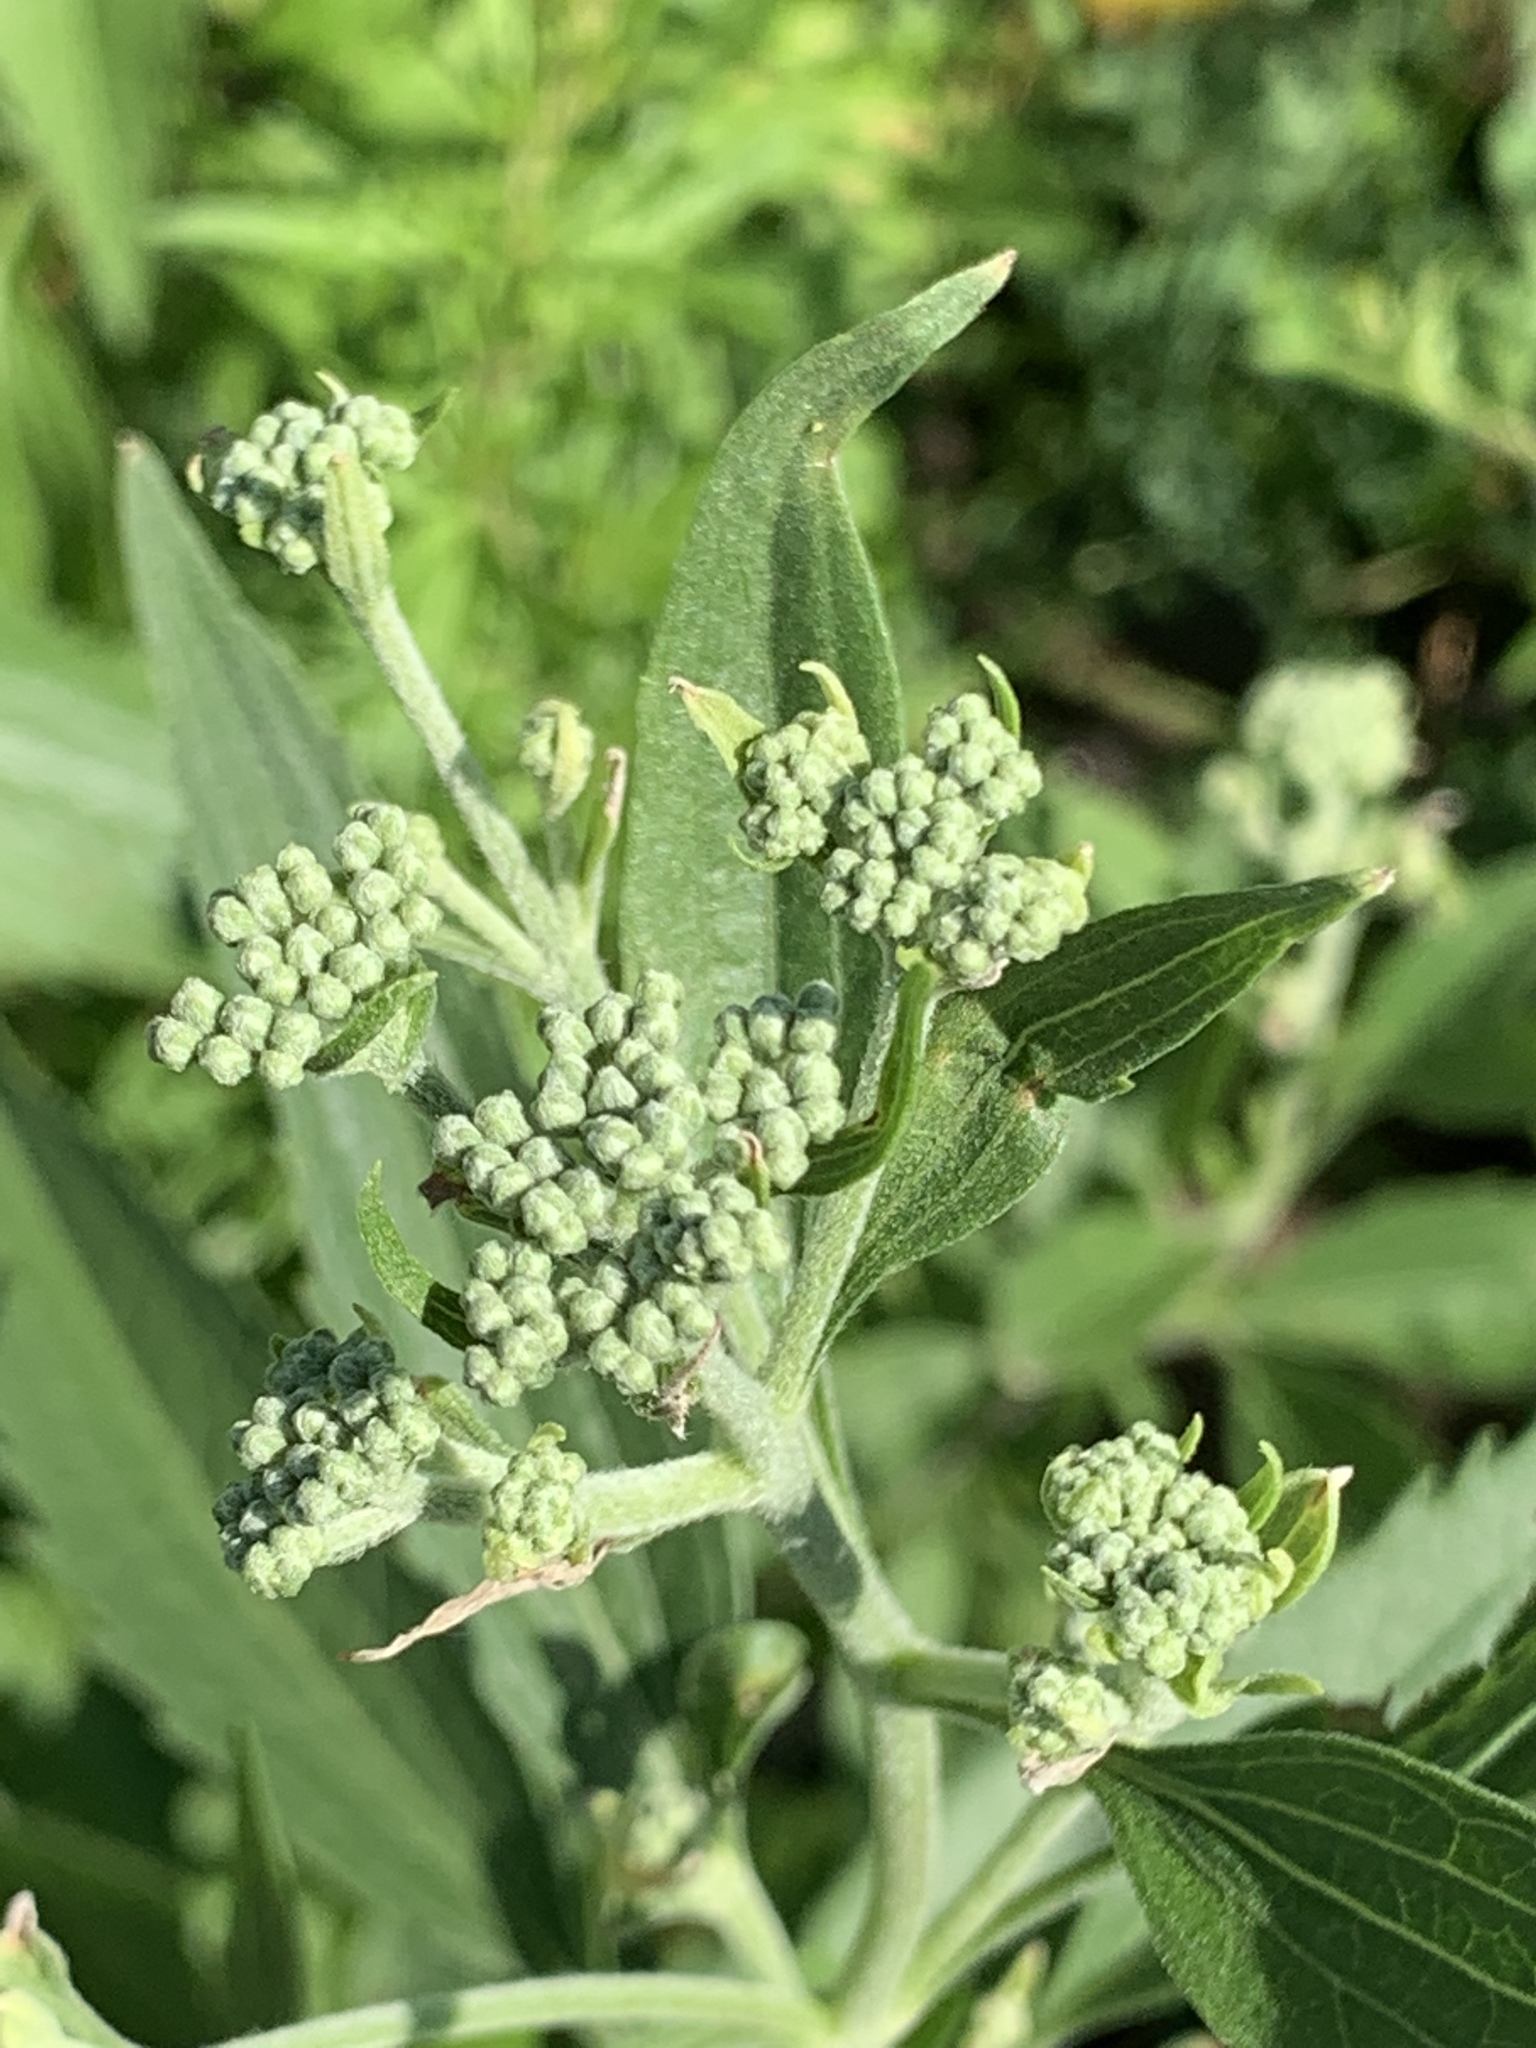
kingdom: Plantae
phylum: Tracheophyta
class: Magnoliopsida
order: Asterales
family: Asteraceae
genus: Eupatorium
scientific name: Eupatorium serotinum
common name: Late boneset
